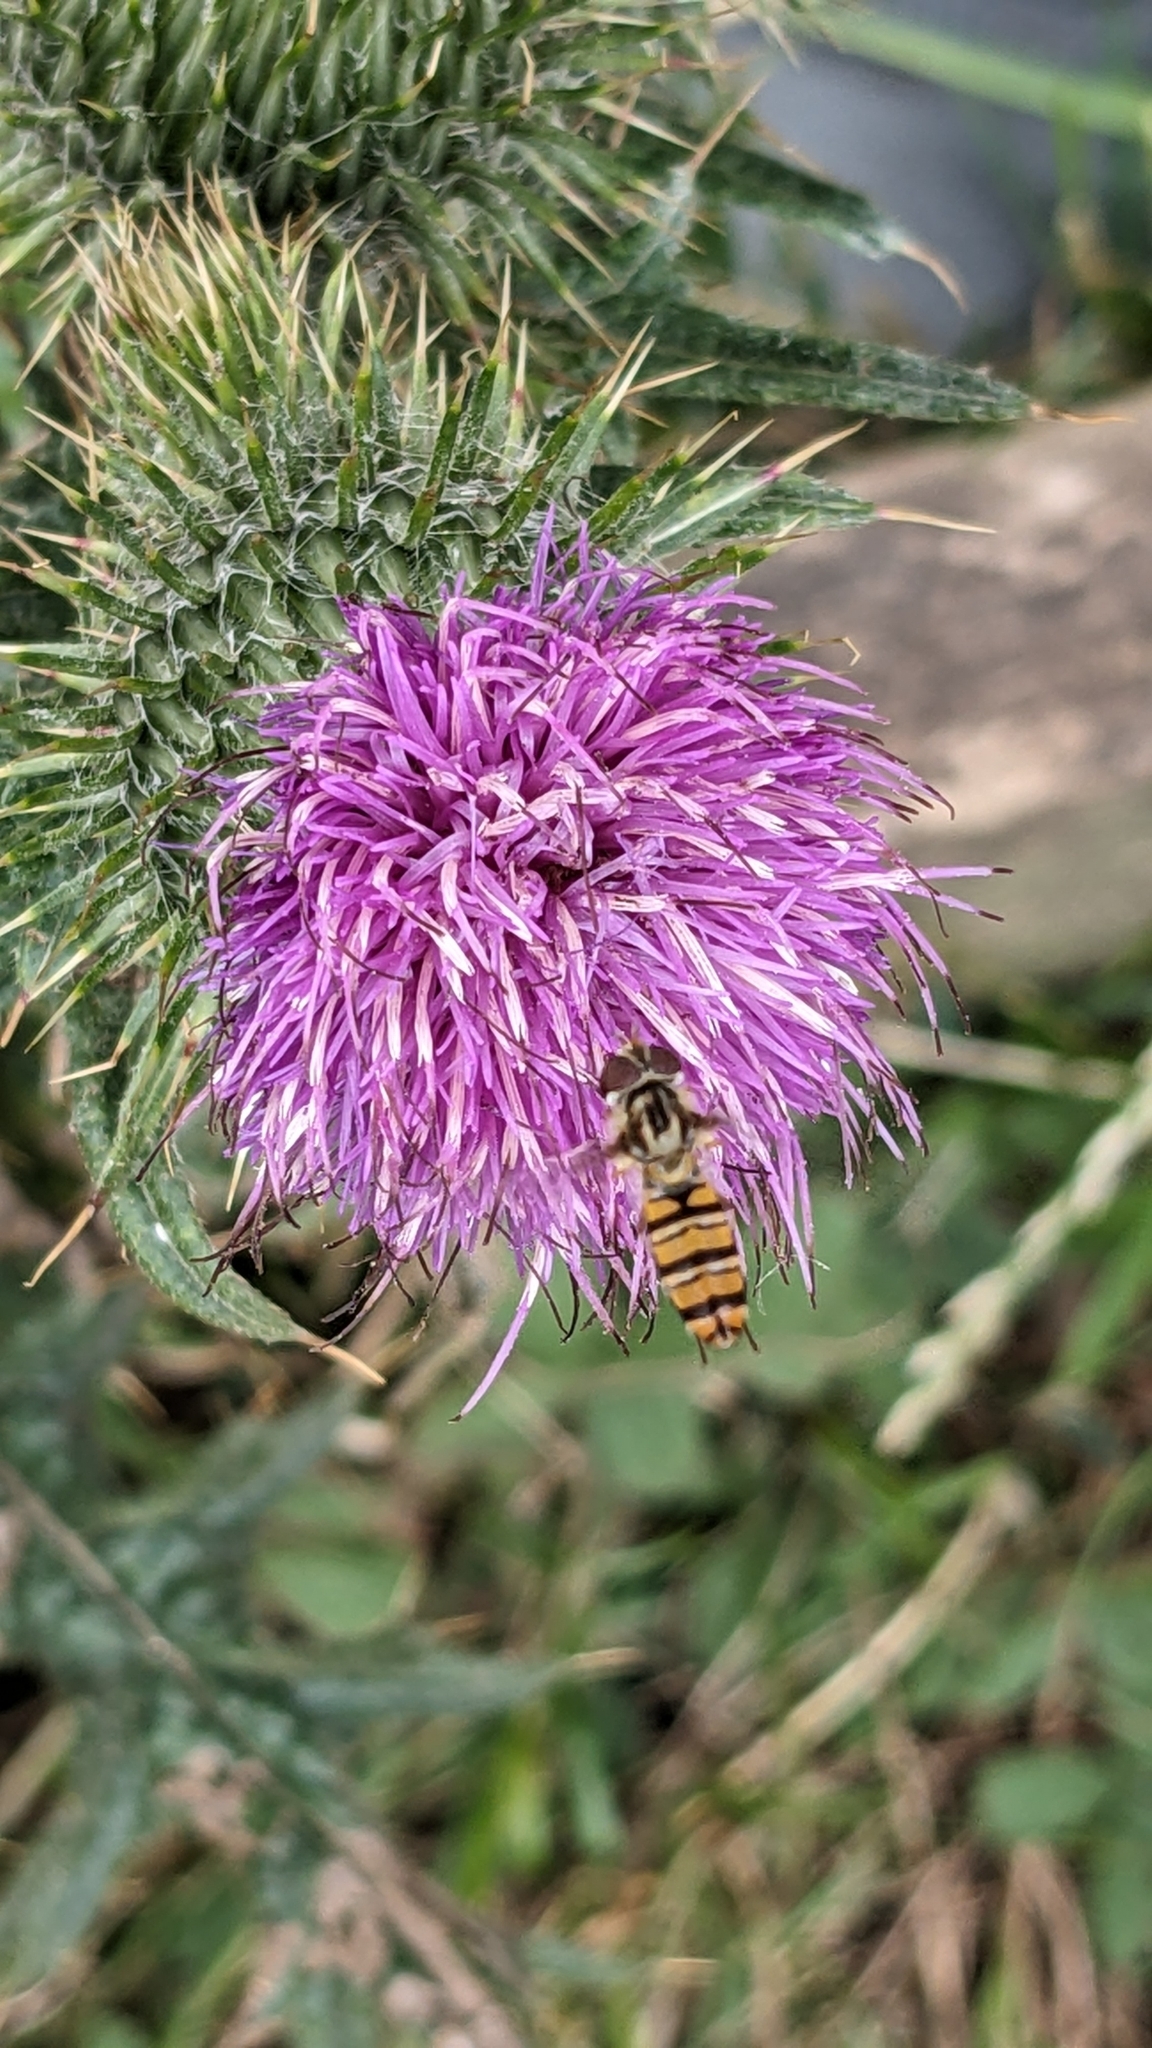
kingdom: Animalia
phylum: Arthropoda
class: Insecta
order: Diptera
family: Syrphidae
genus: Episyrphus
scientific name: Episyrphus balteatus
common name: Marmalade hoverfly
